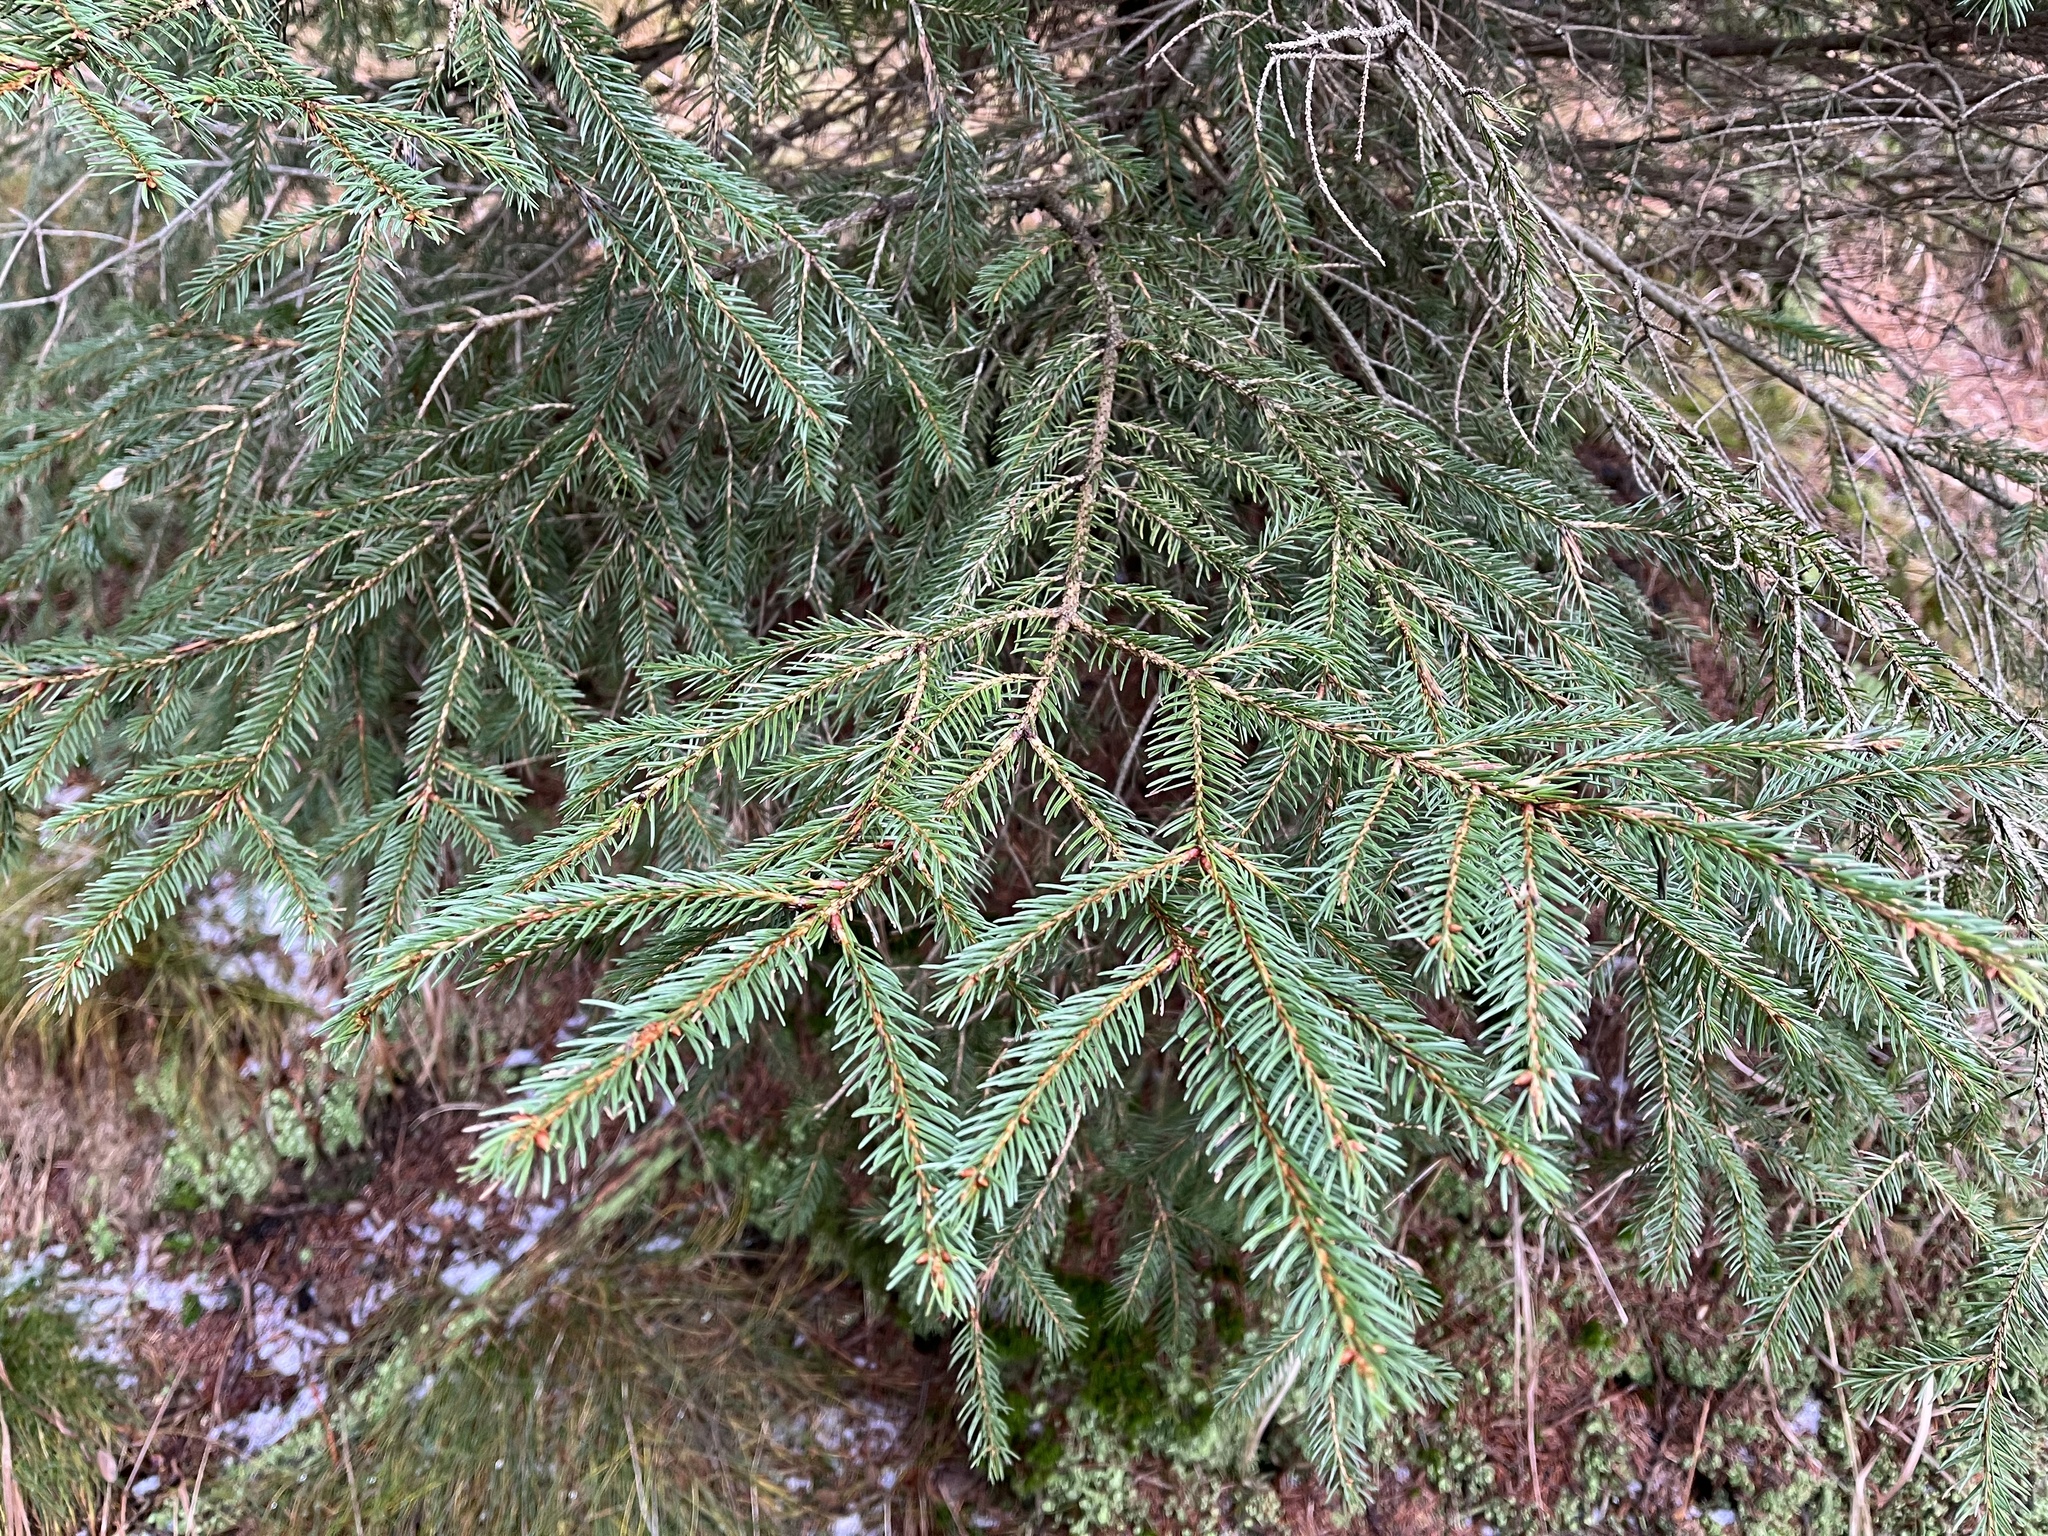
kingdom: Plantae
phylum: Tracheophyta
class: Pinopsida
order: Pinales
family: Pinaceae
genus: Picea
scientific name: Picea abies
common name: Norway spruce
